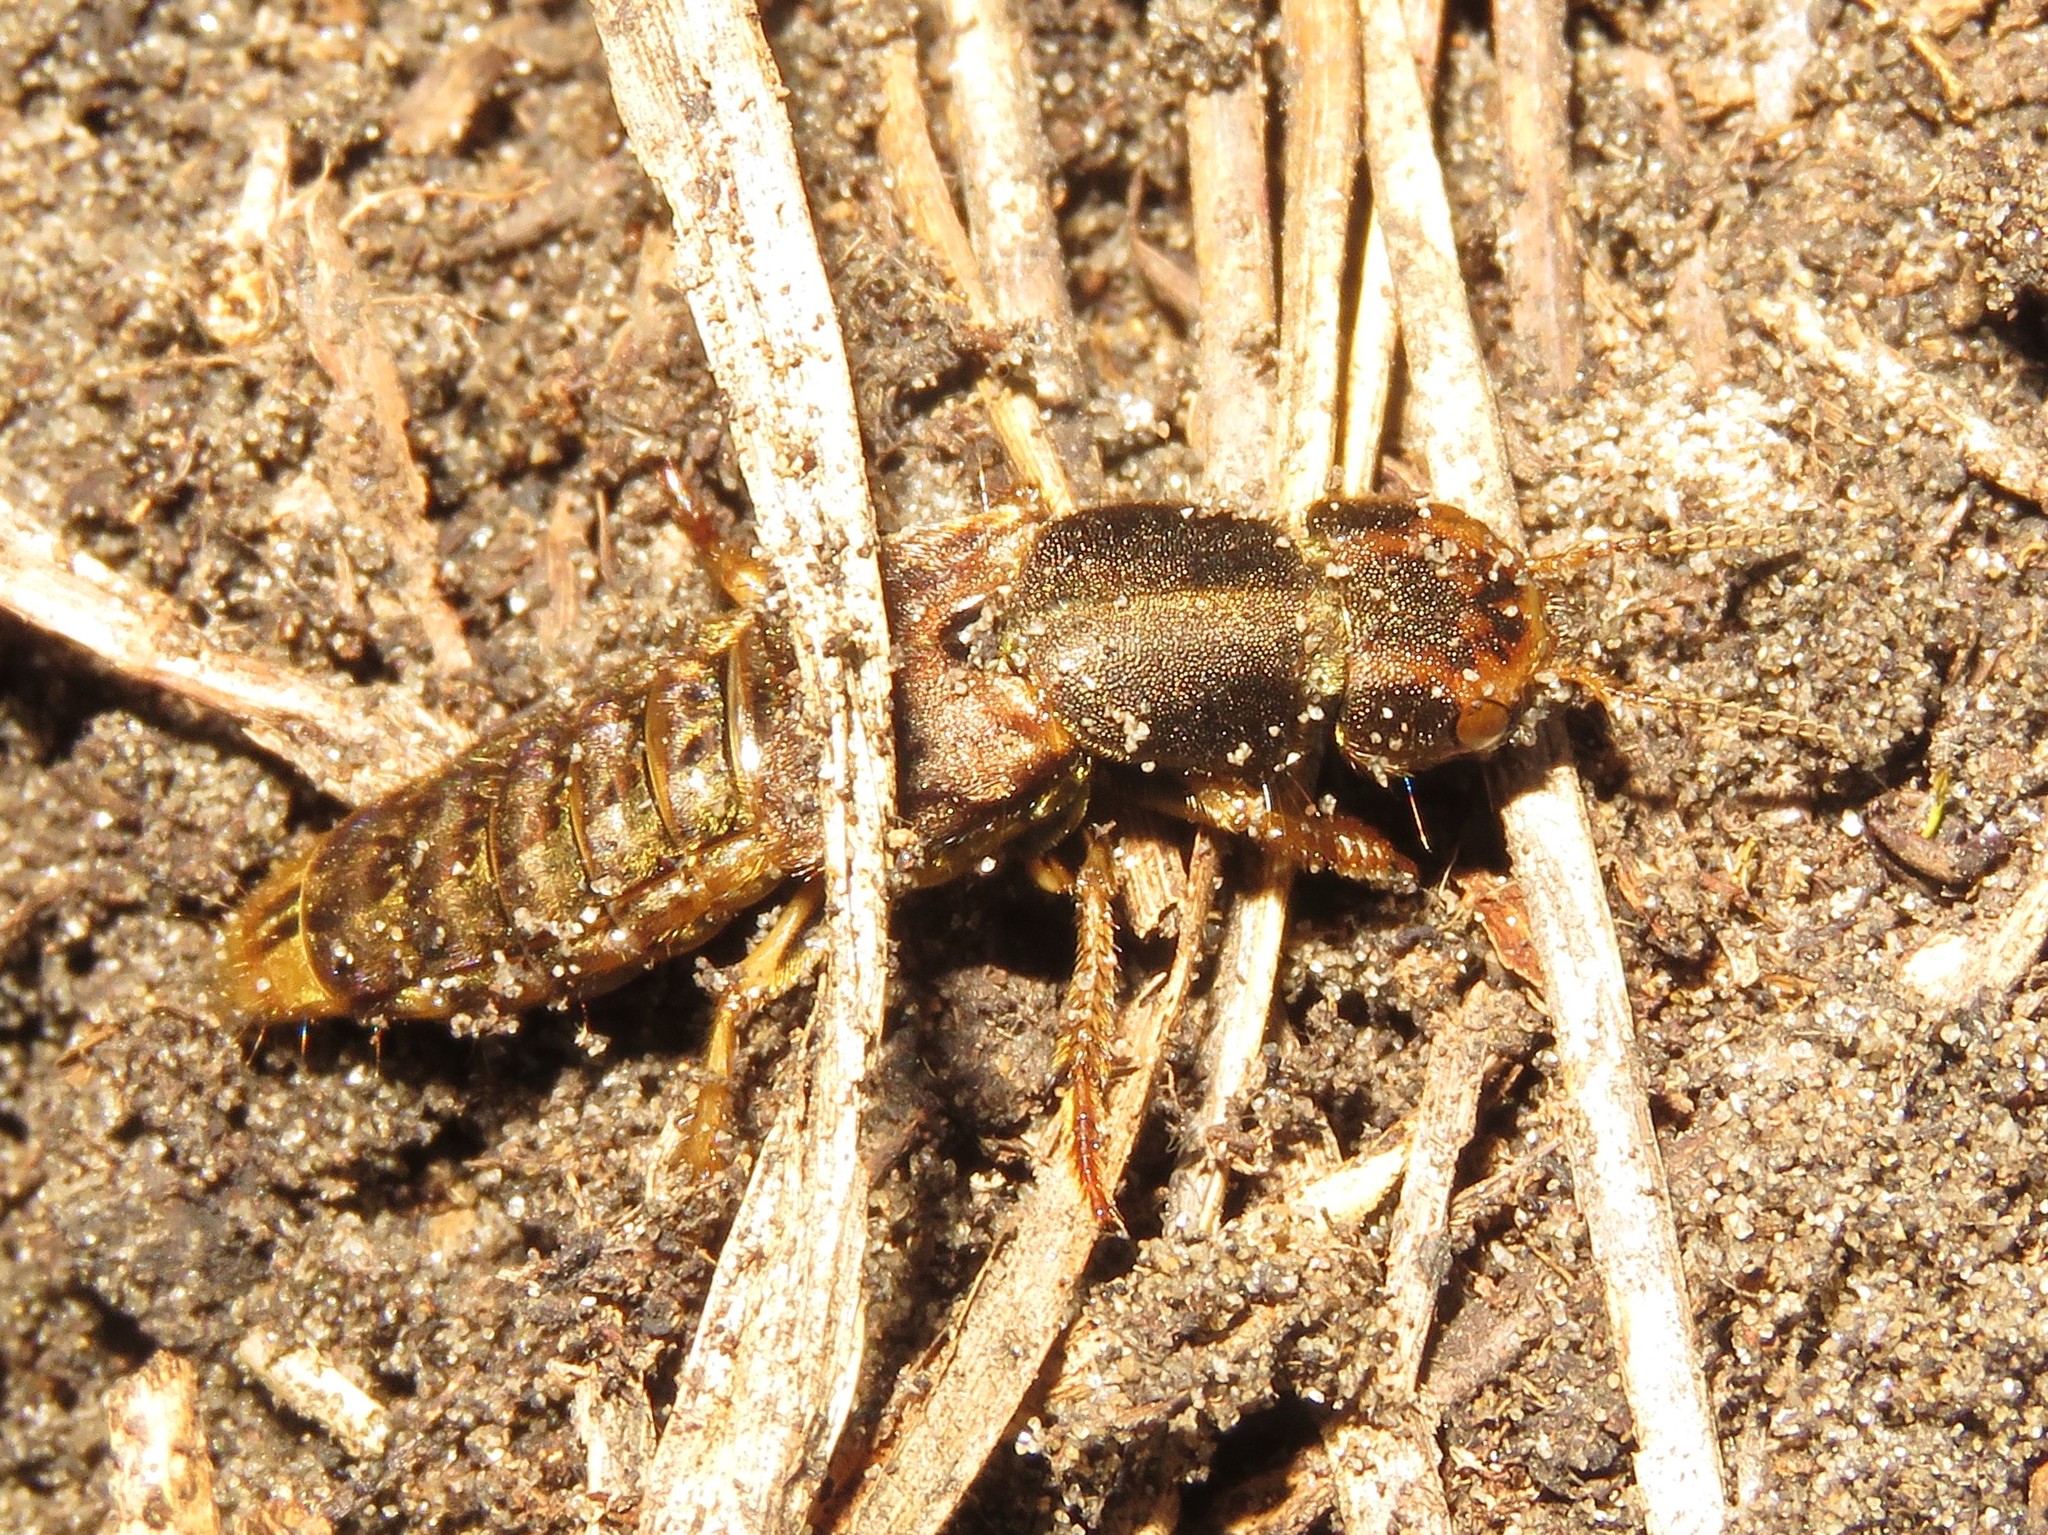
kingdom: Animalia
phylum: Arthropoda
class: Insecta
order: Coleoptera
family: Staphylinidae
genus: Platydracus
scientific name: Platydracus maculosus
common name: Brown rove beetle
